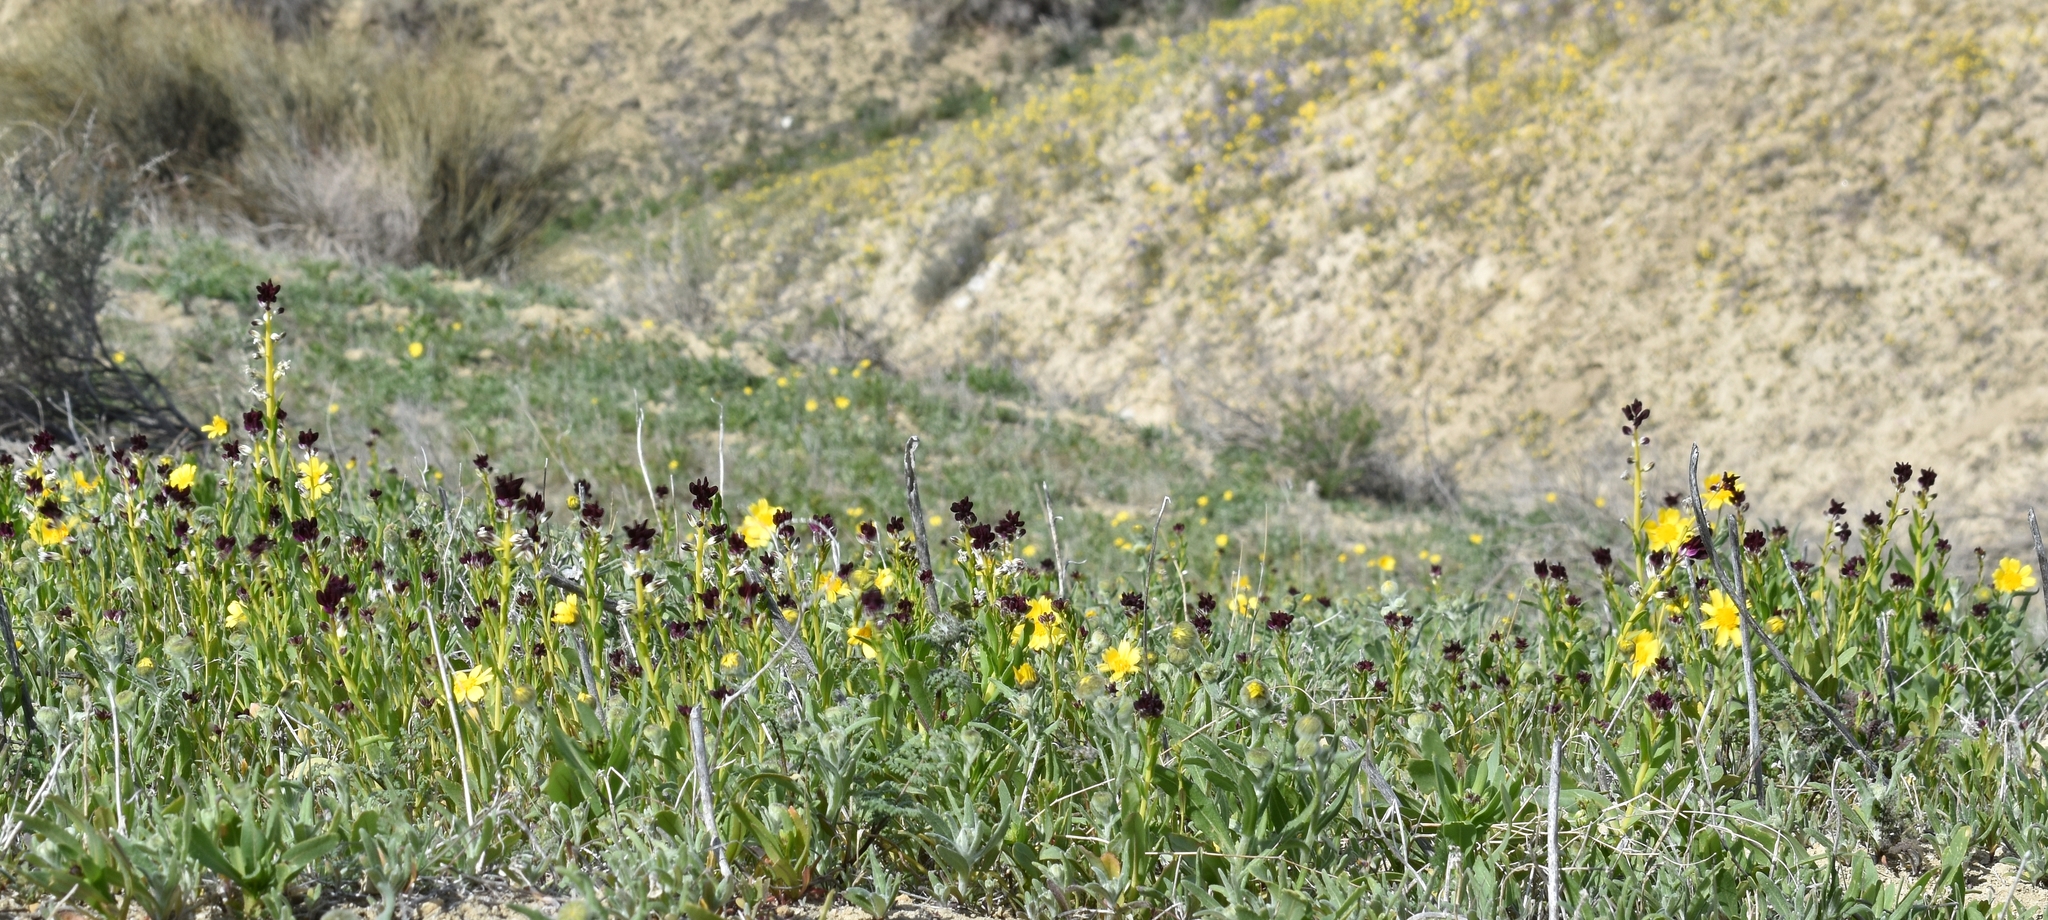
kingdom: Plantae
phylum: Tracheophyta
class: Magnoliopsida
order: Brassicales
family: Brassicaceae
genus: Streptanthus
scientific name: Streptanthus inflatus
